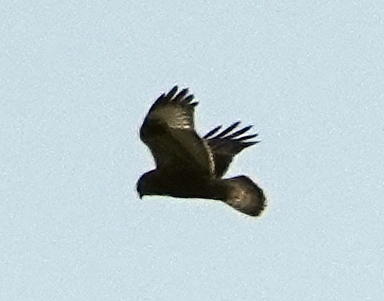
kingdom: Animalia
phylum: Chordata
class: Aves
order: Accipitriformes
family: Accipitridae
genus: Buteo
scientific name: Buteo lagopus
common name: Rough-legged buzzard
